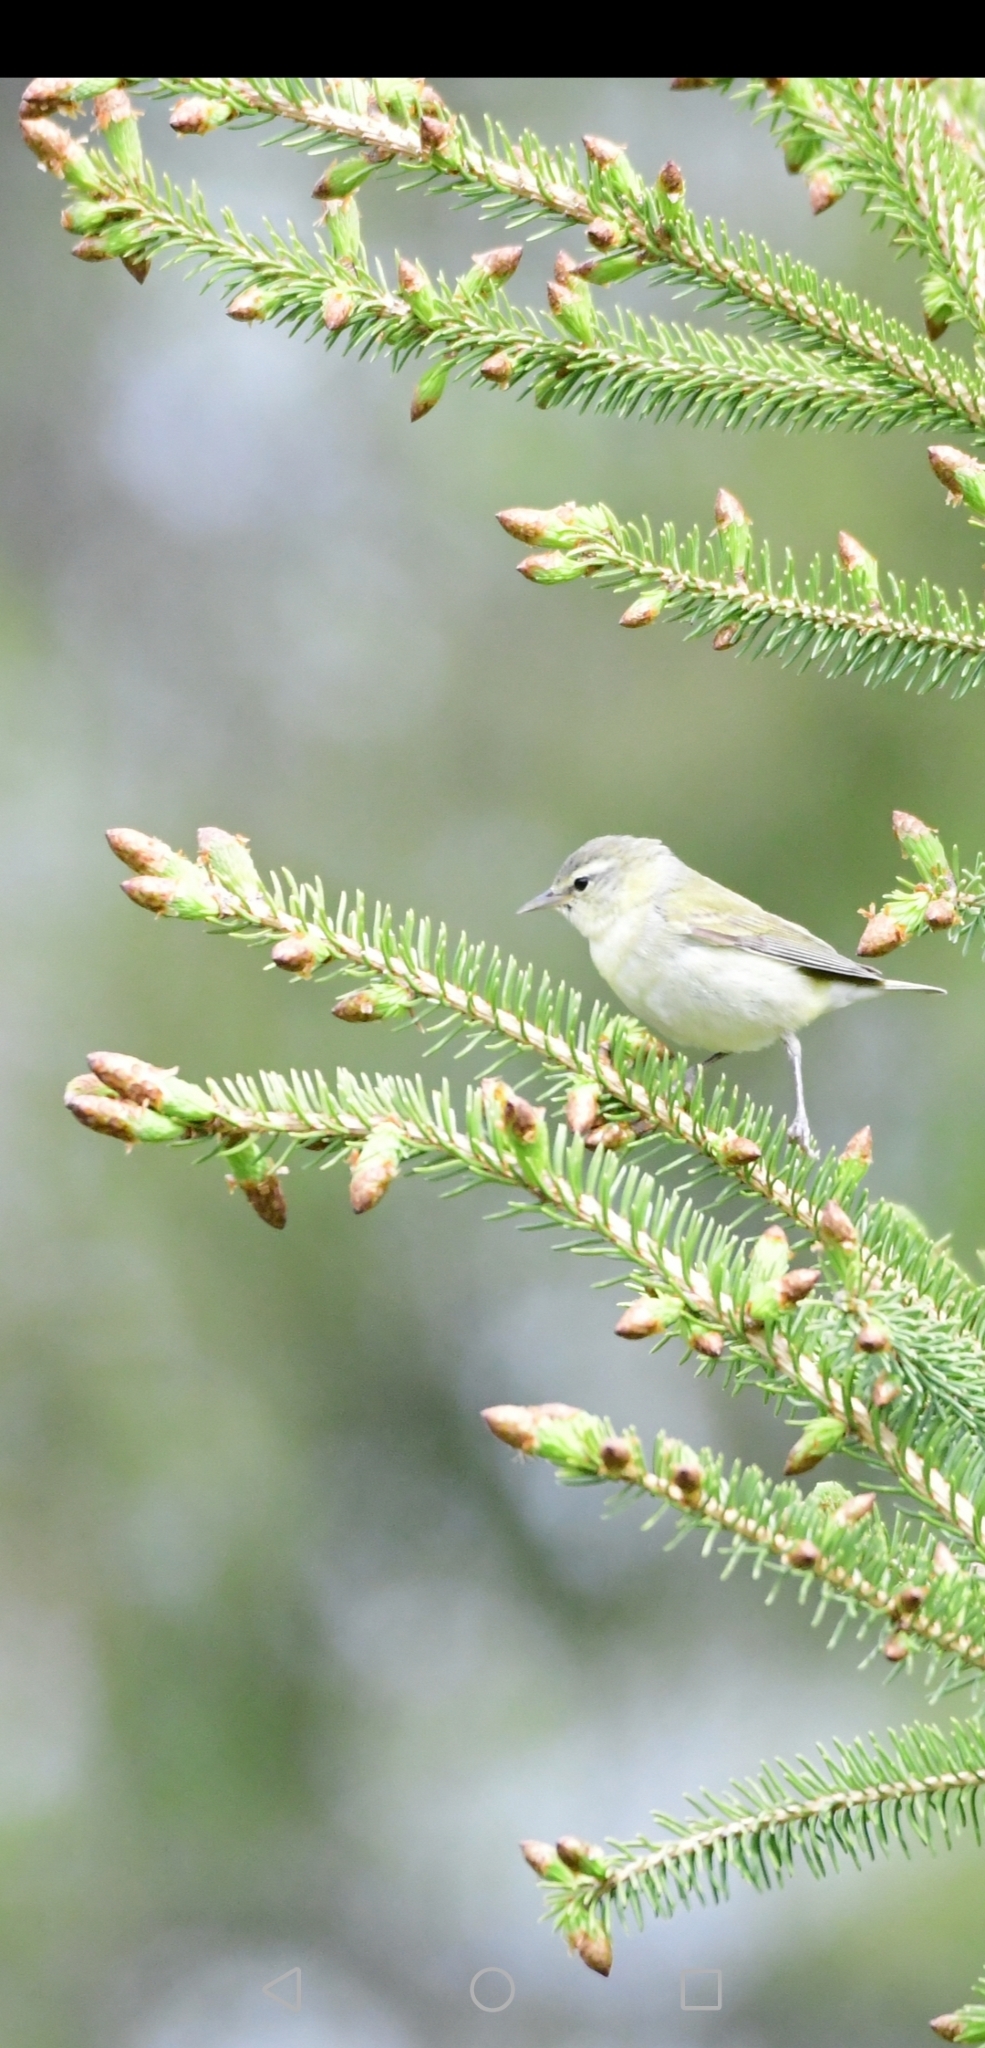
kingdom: Animalia
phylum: Chordata
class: Aves
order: Passeriformes
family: Parulidae
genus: Leiothlypis
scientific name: Leiothlypis peregrina
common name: Tennessee warbler
